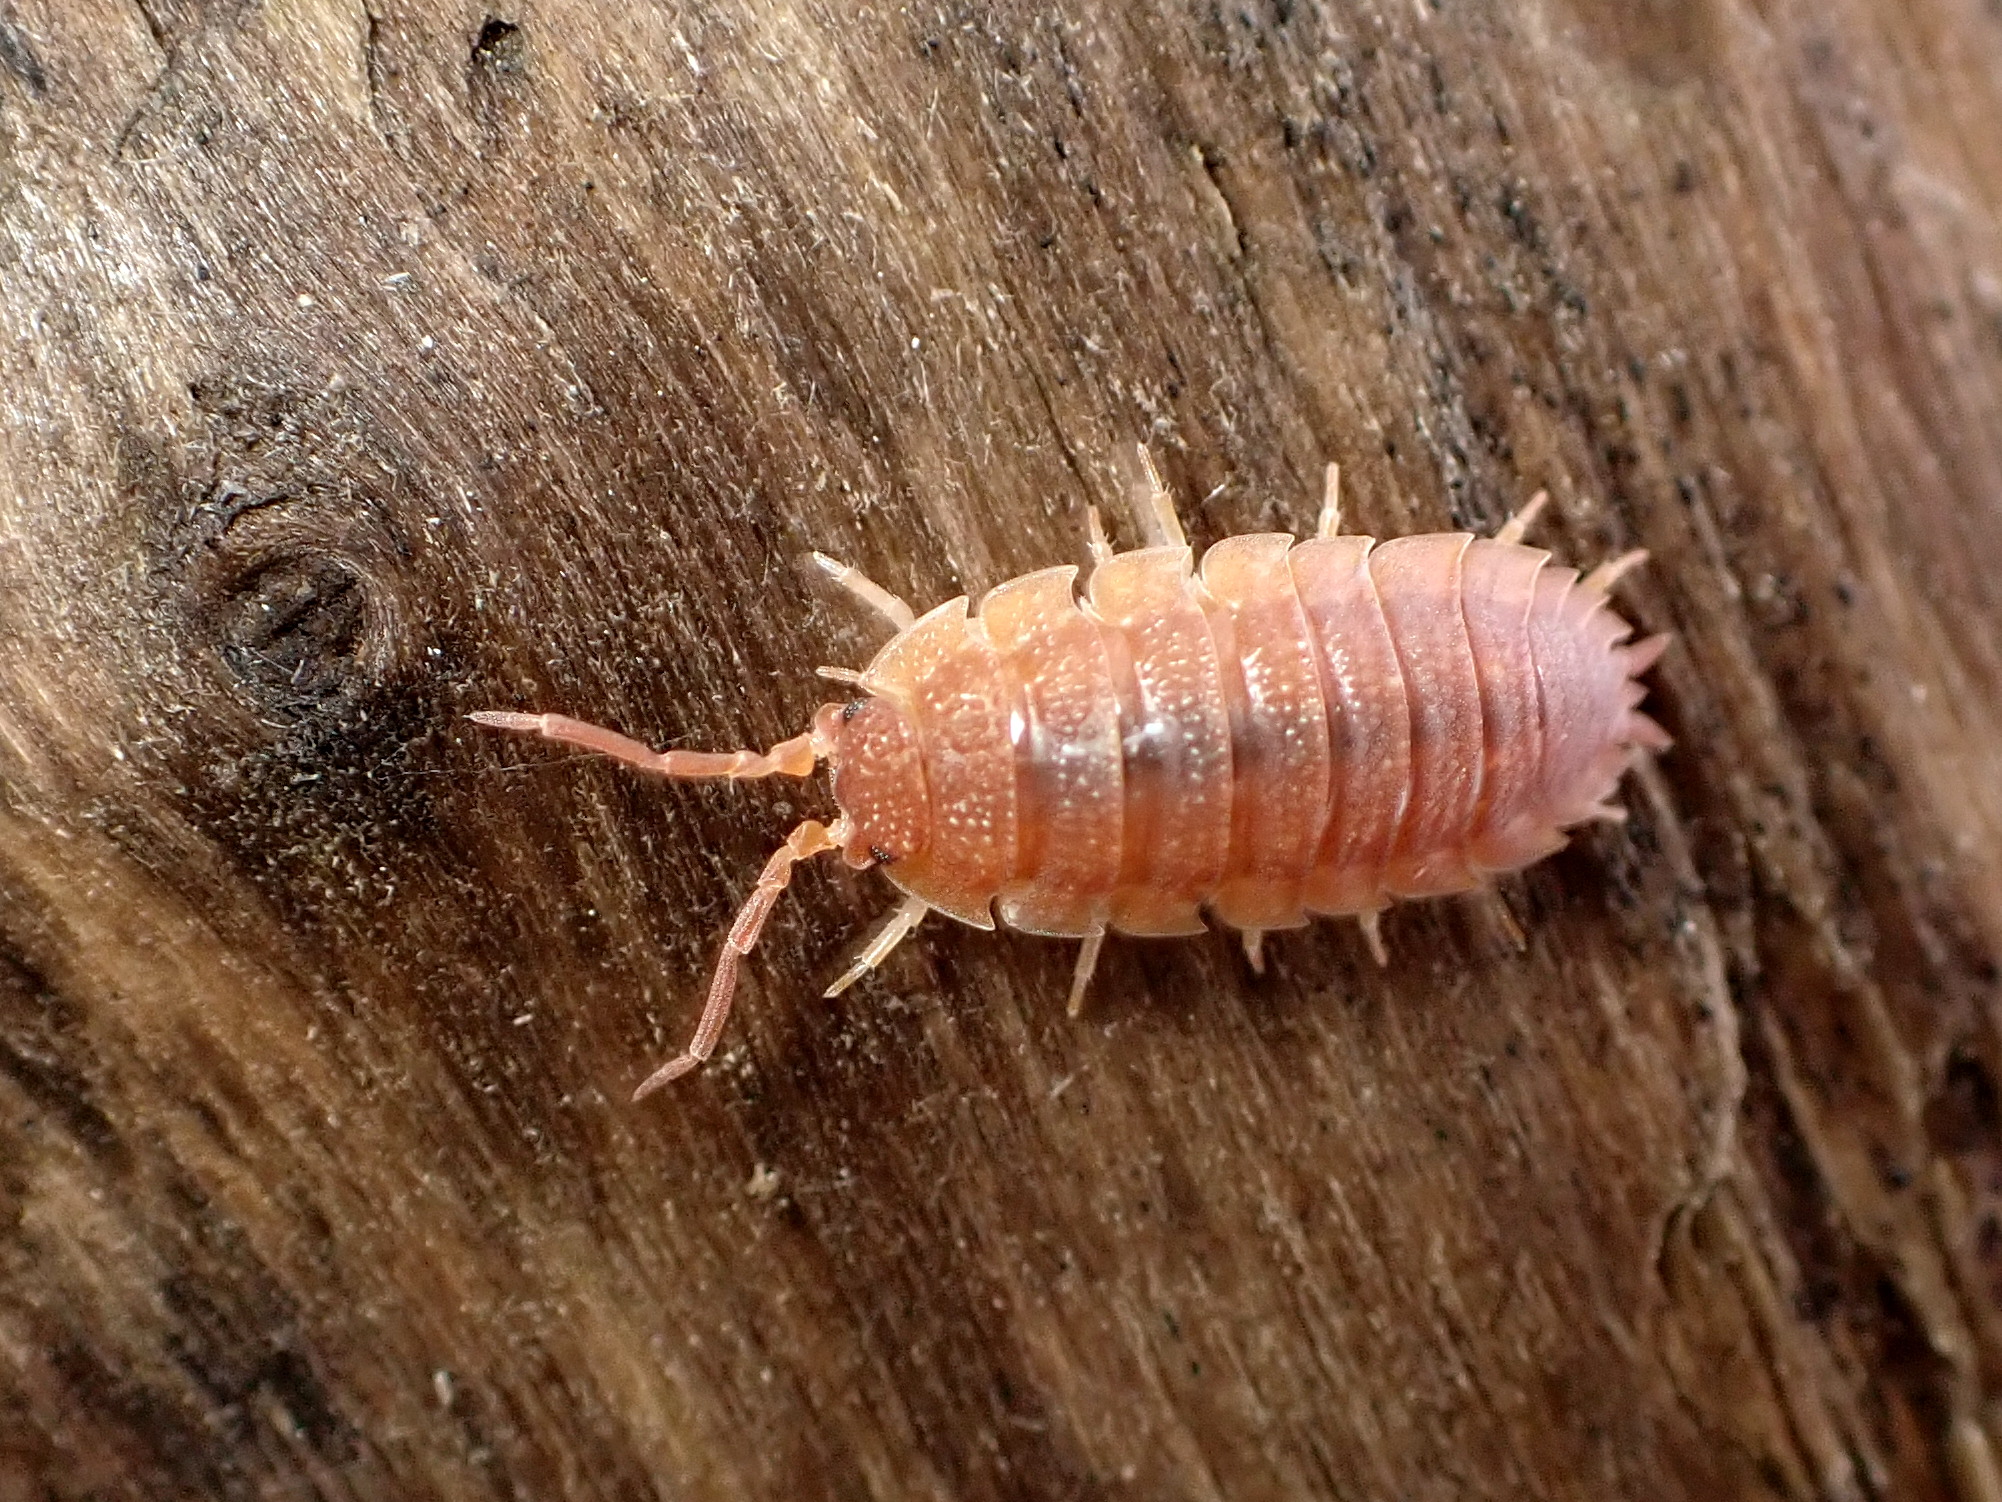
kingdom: Animalia
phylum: Arthropoda
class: Malacostraca
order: Isopoda
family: Porcellionidae
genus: Porcellio
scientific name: Porcellio scaber
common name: Common rough woodlouse
